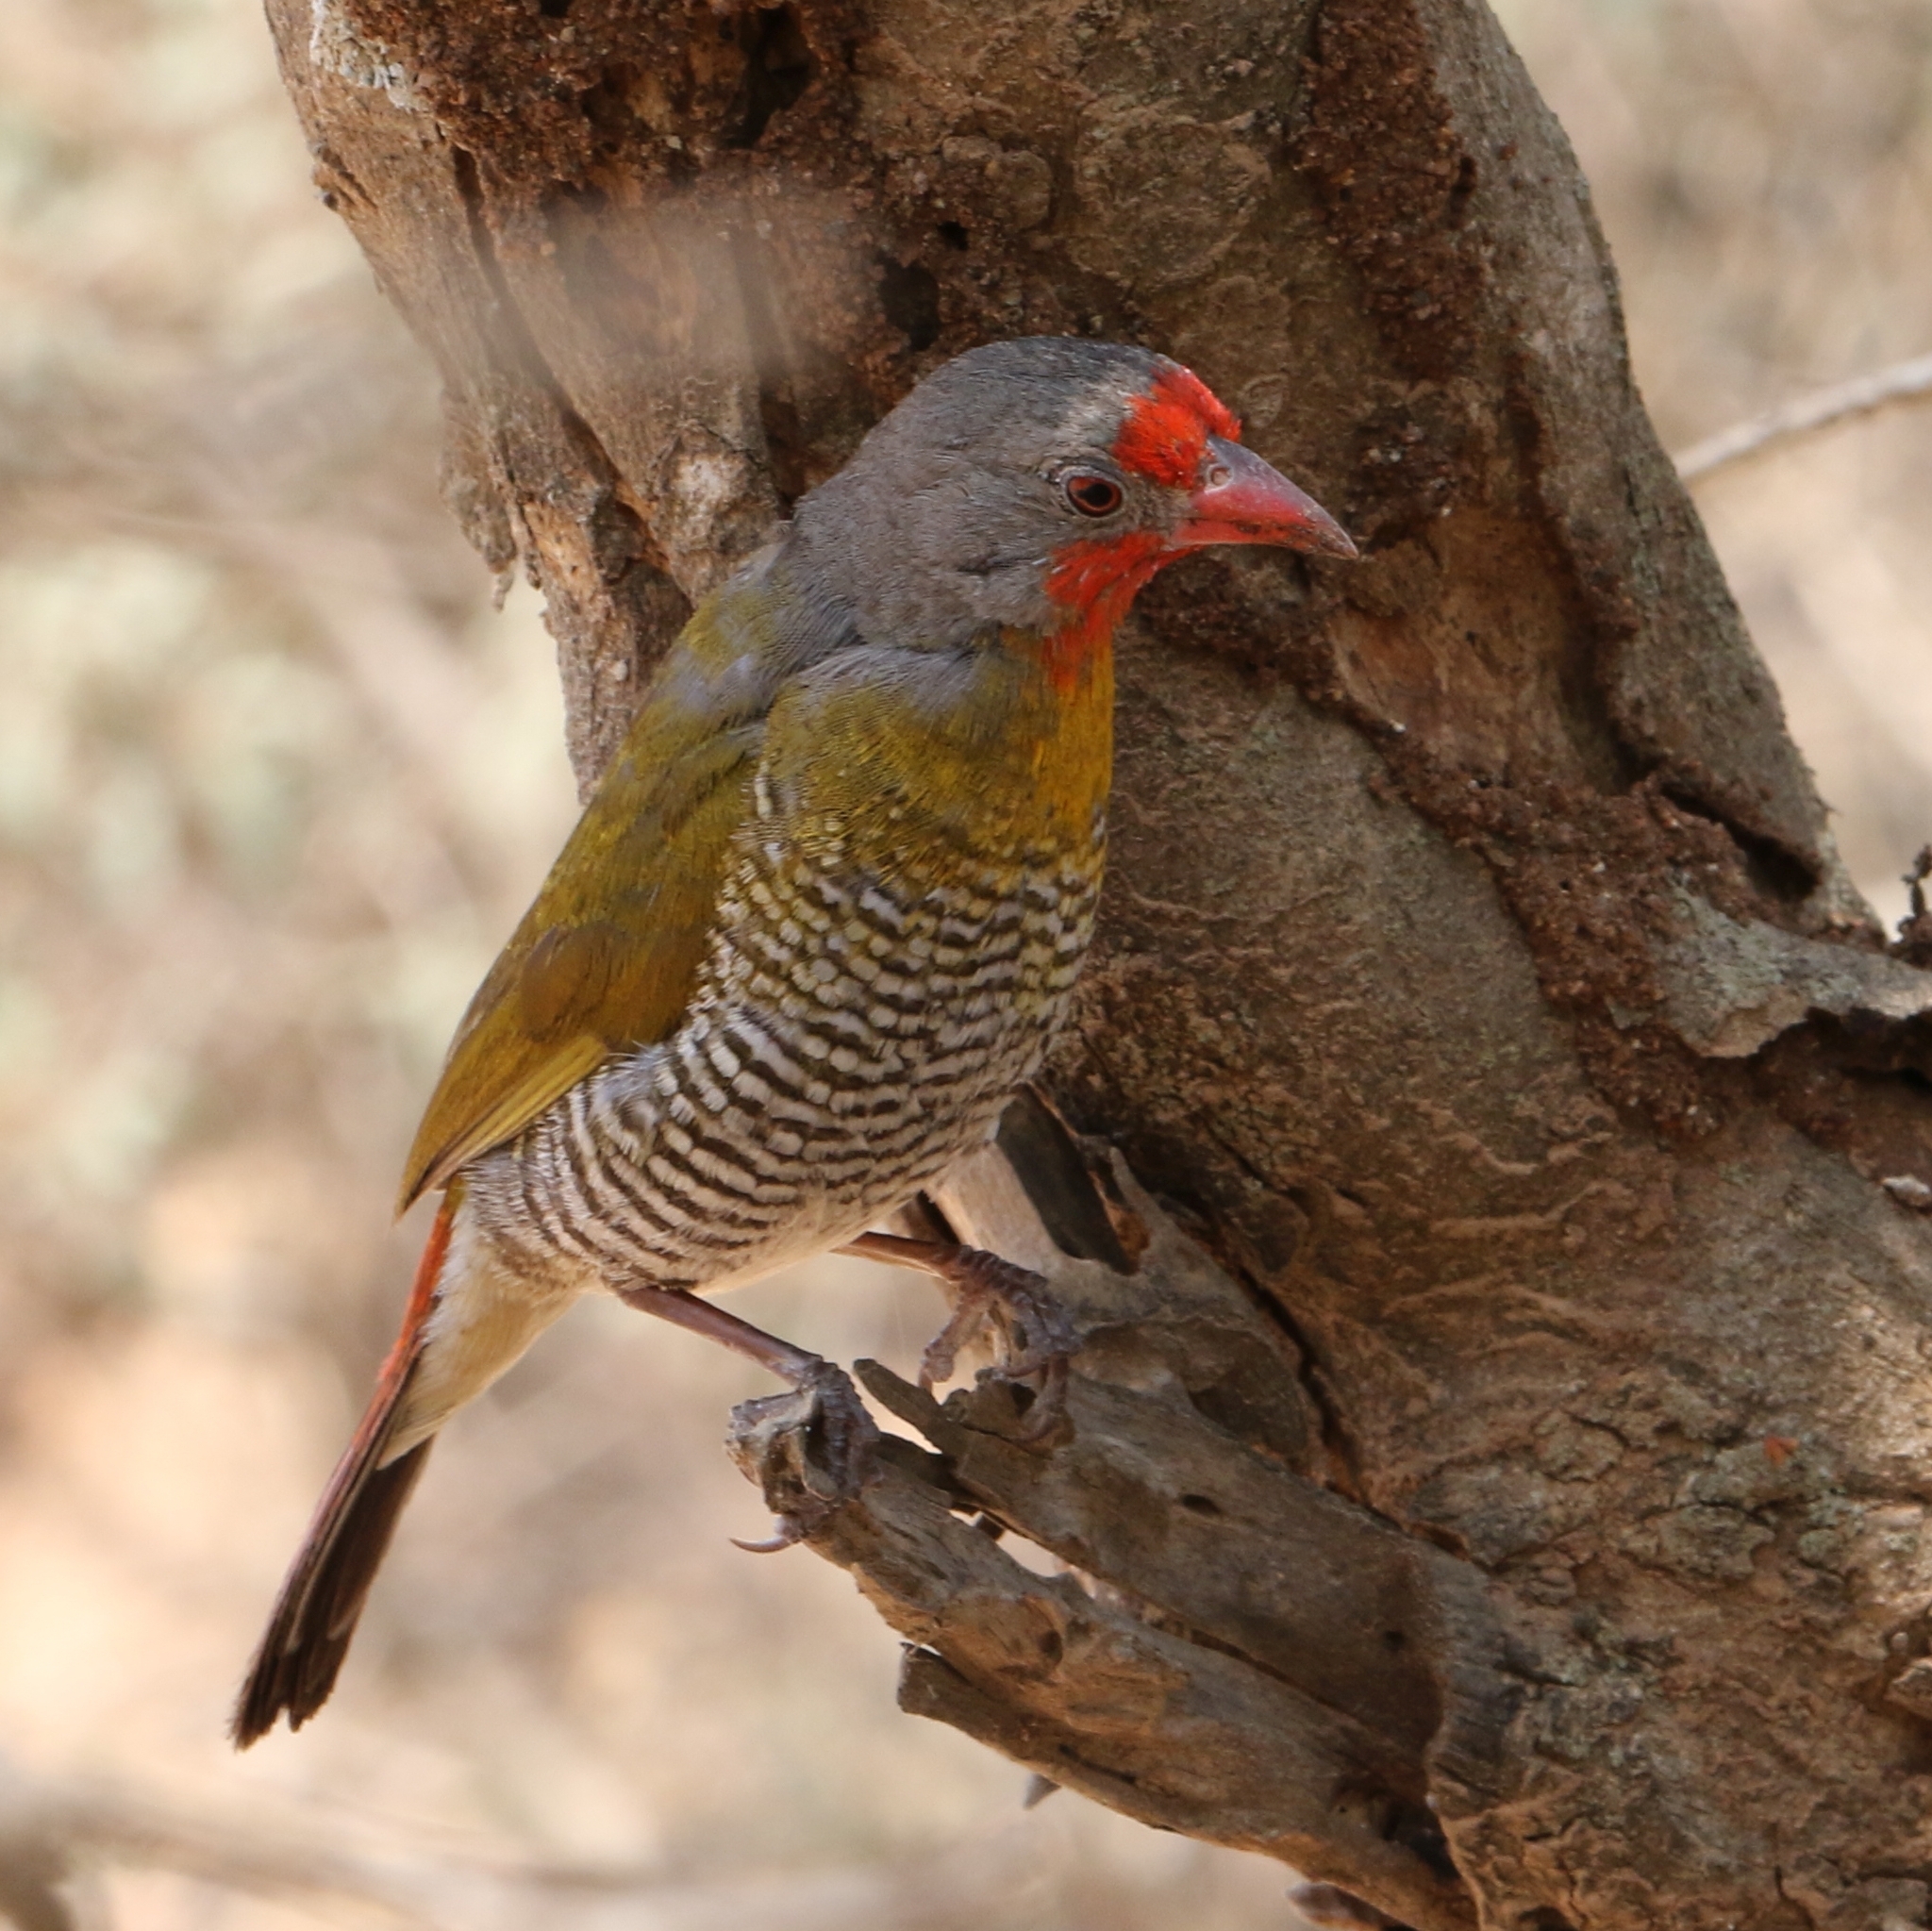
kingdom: Animalia
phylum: Chordata
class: Aves
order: Passeriformes
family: Estrildidae
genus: Pytilia
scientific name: Pytilia melba
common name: Green-winged pytilia
